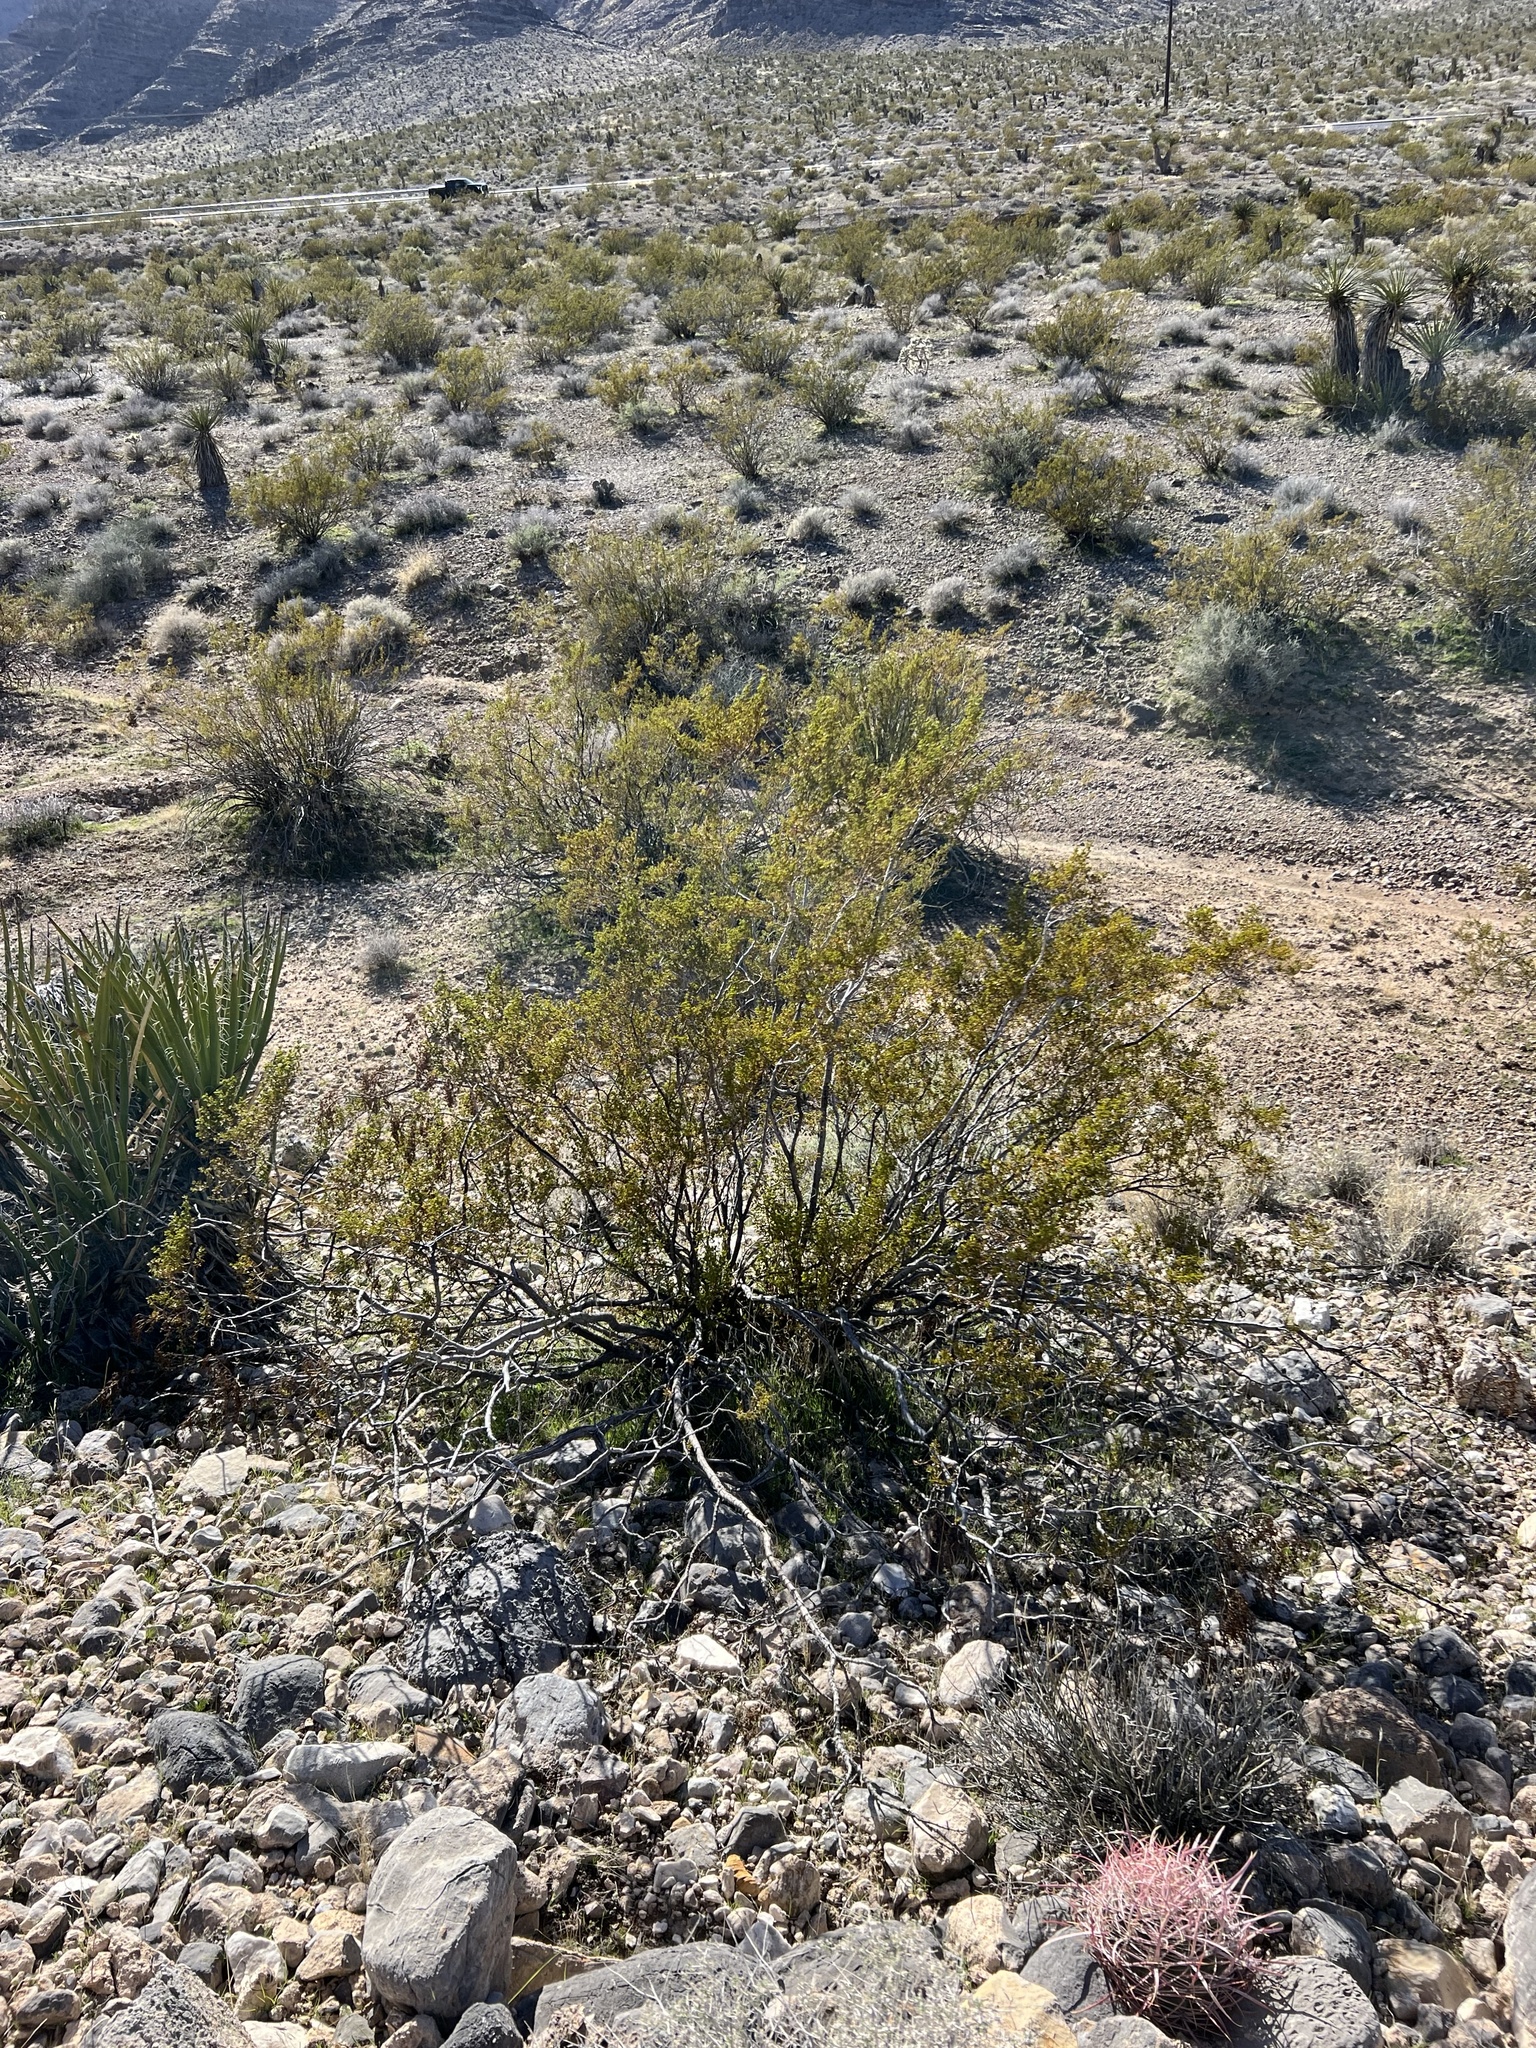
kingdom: Plantae
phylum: Tracheophyta
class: Magnoliopsida
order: Zygophyllales
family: Zygophyllaceae
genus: Larrea
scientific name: Larrea tridentata
